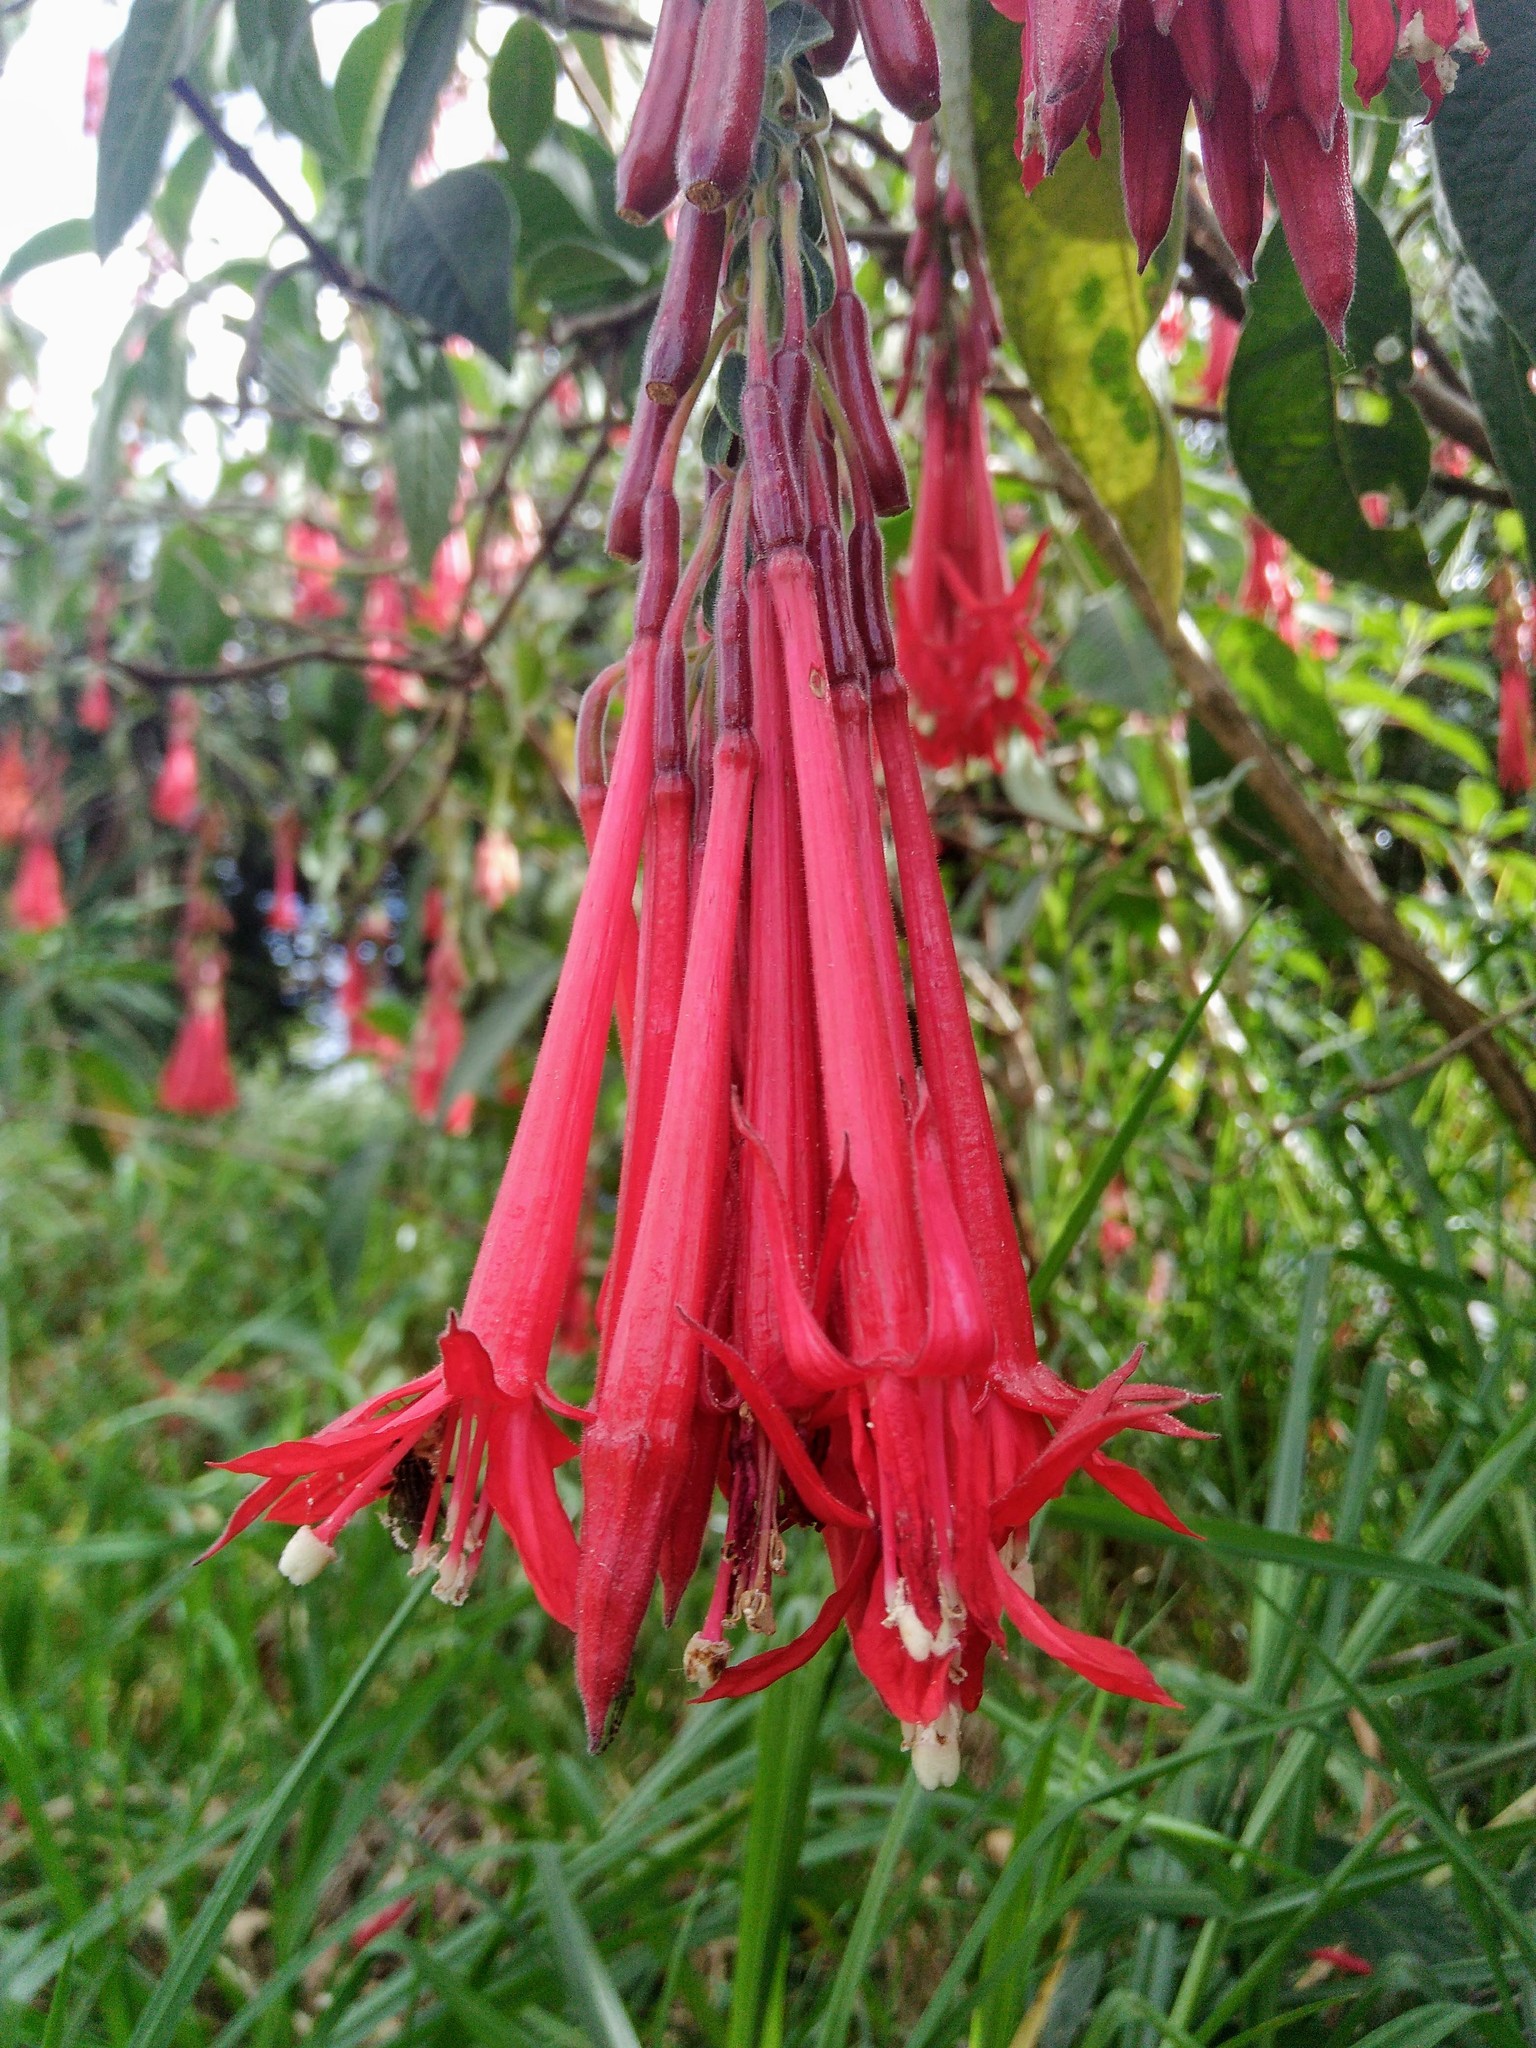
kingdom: Plantae
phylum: Tracheophyta
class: Magnoliopsida
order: Myrtales
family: Onagraceae
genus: Fuchsia
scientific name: Fuchsia boliviana
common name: Bolivian fuchsia
